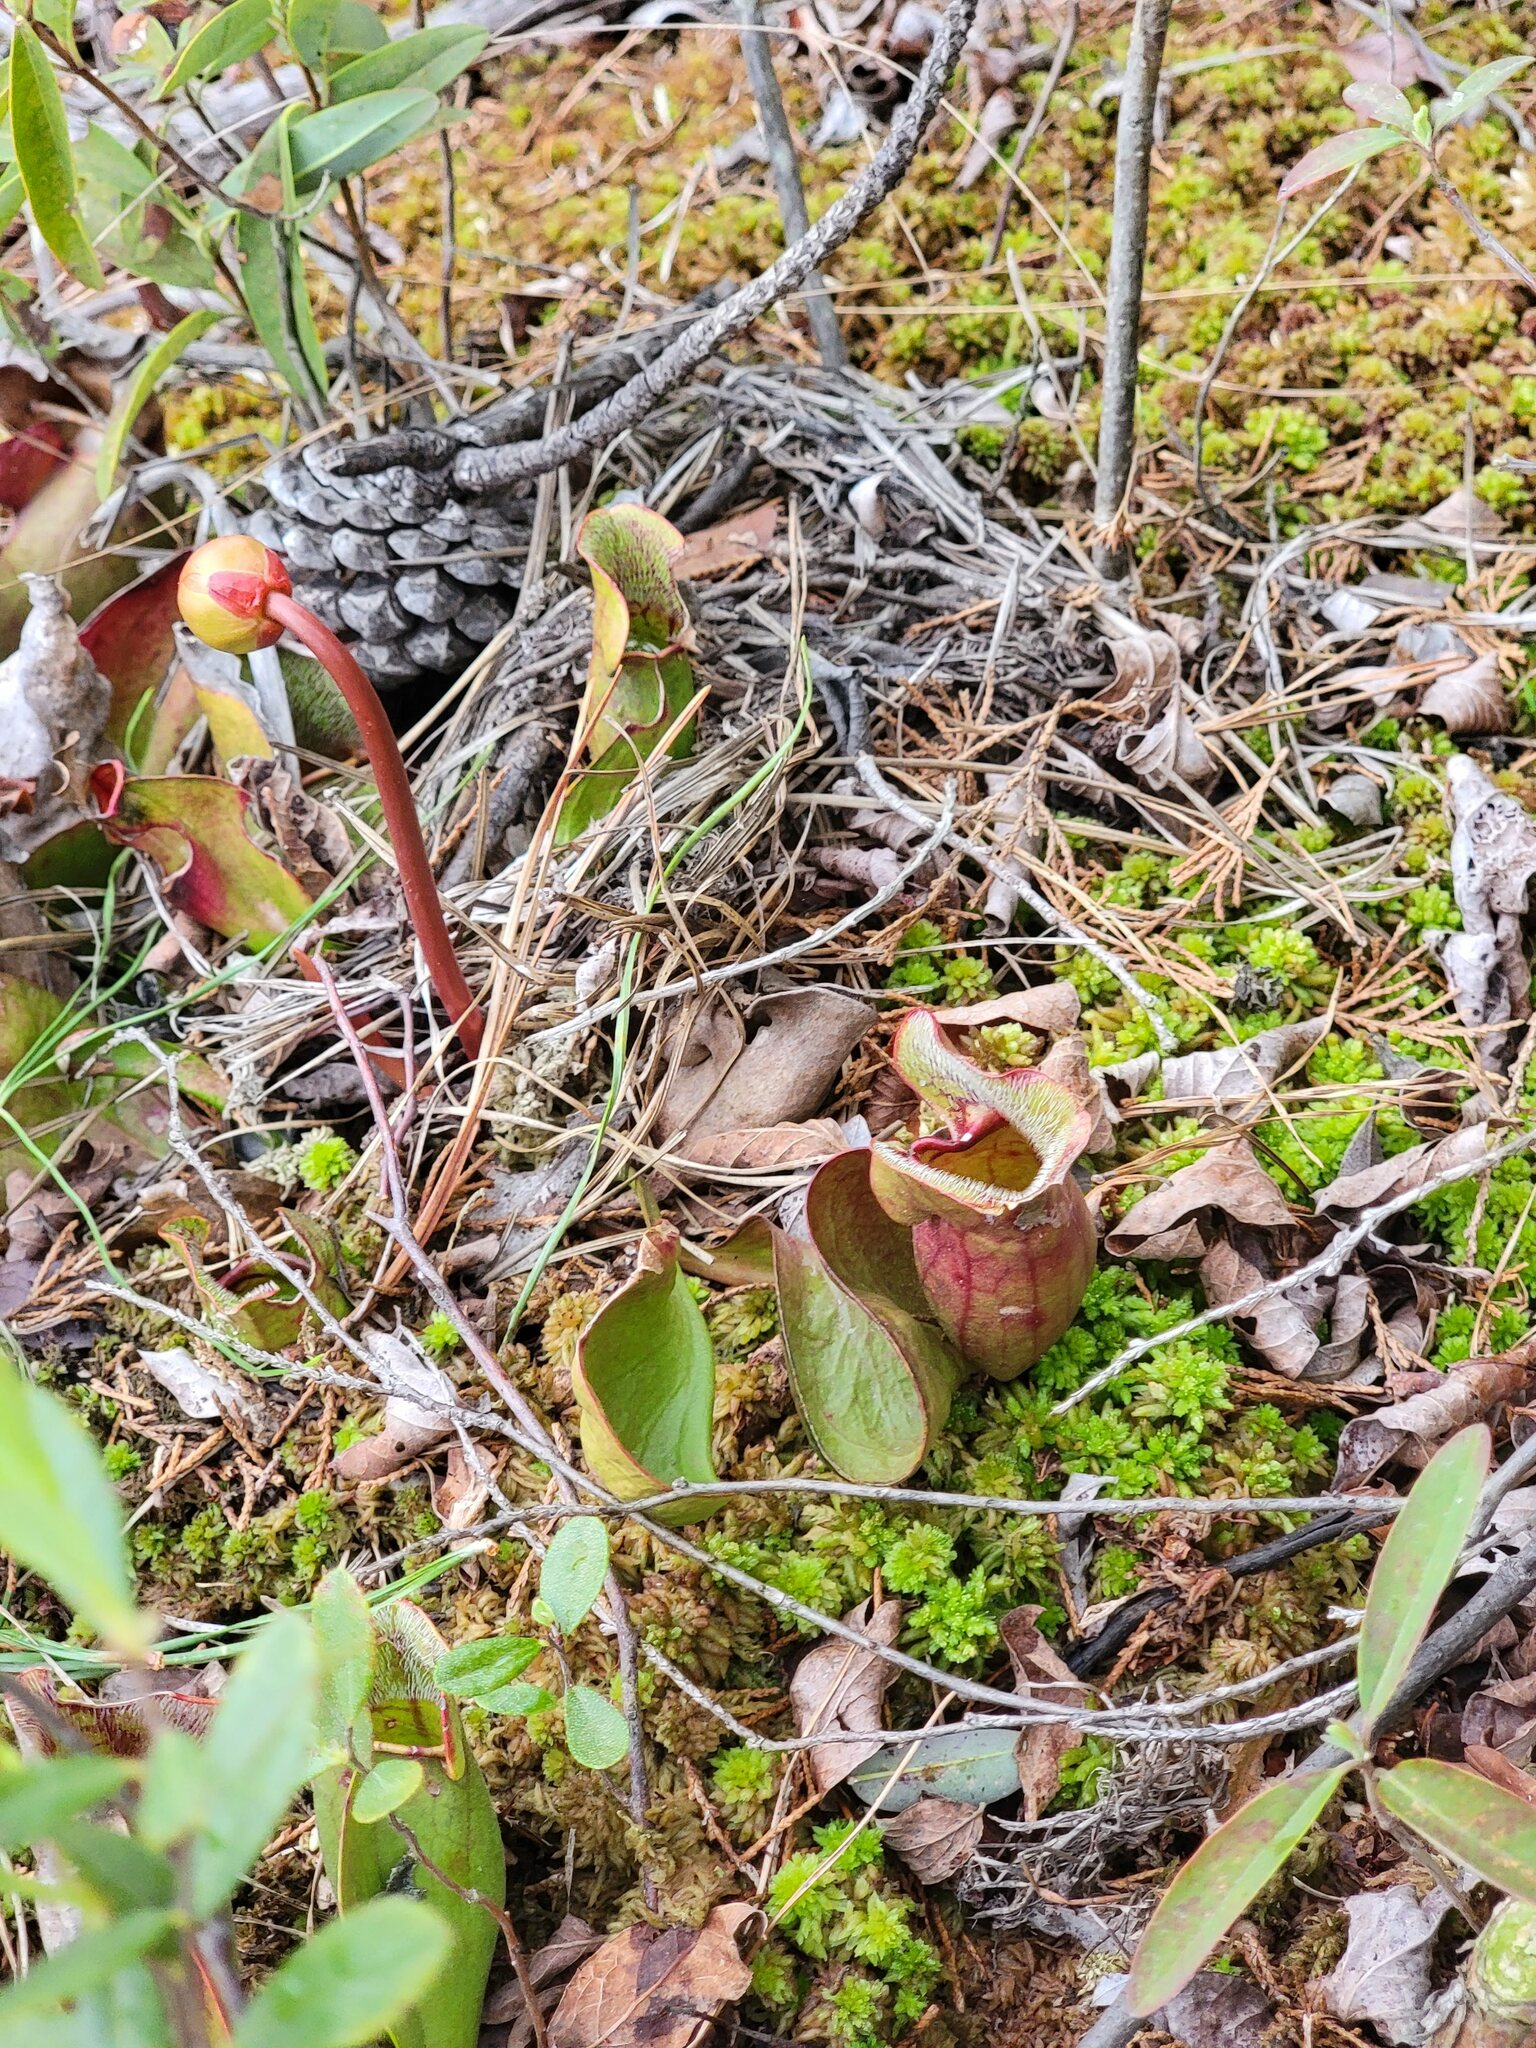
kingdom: Plantae
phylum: Tracheophyta
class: Magnoliopsida
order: Ericales
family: Sarraceniaceae
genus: Sarracenia
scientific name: Sarracenia purpurea
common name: Pitcherplant
